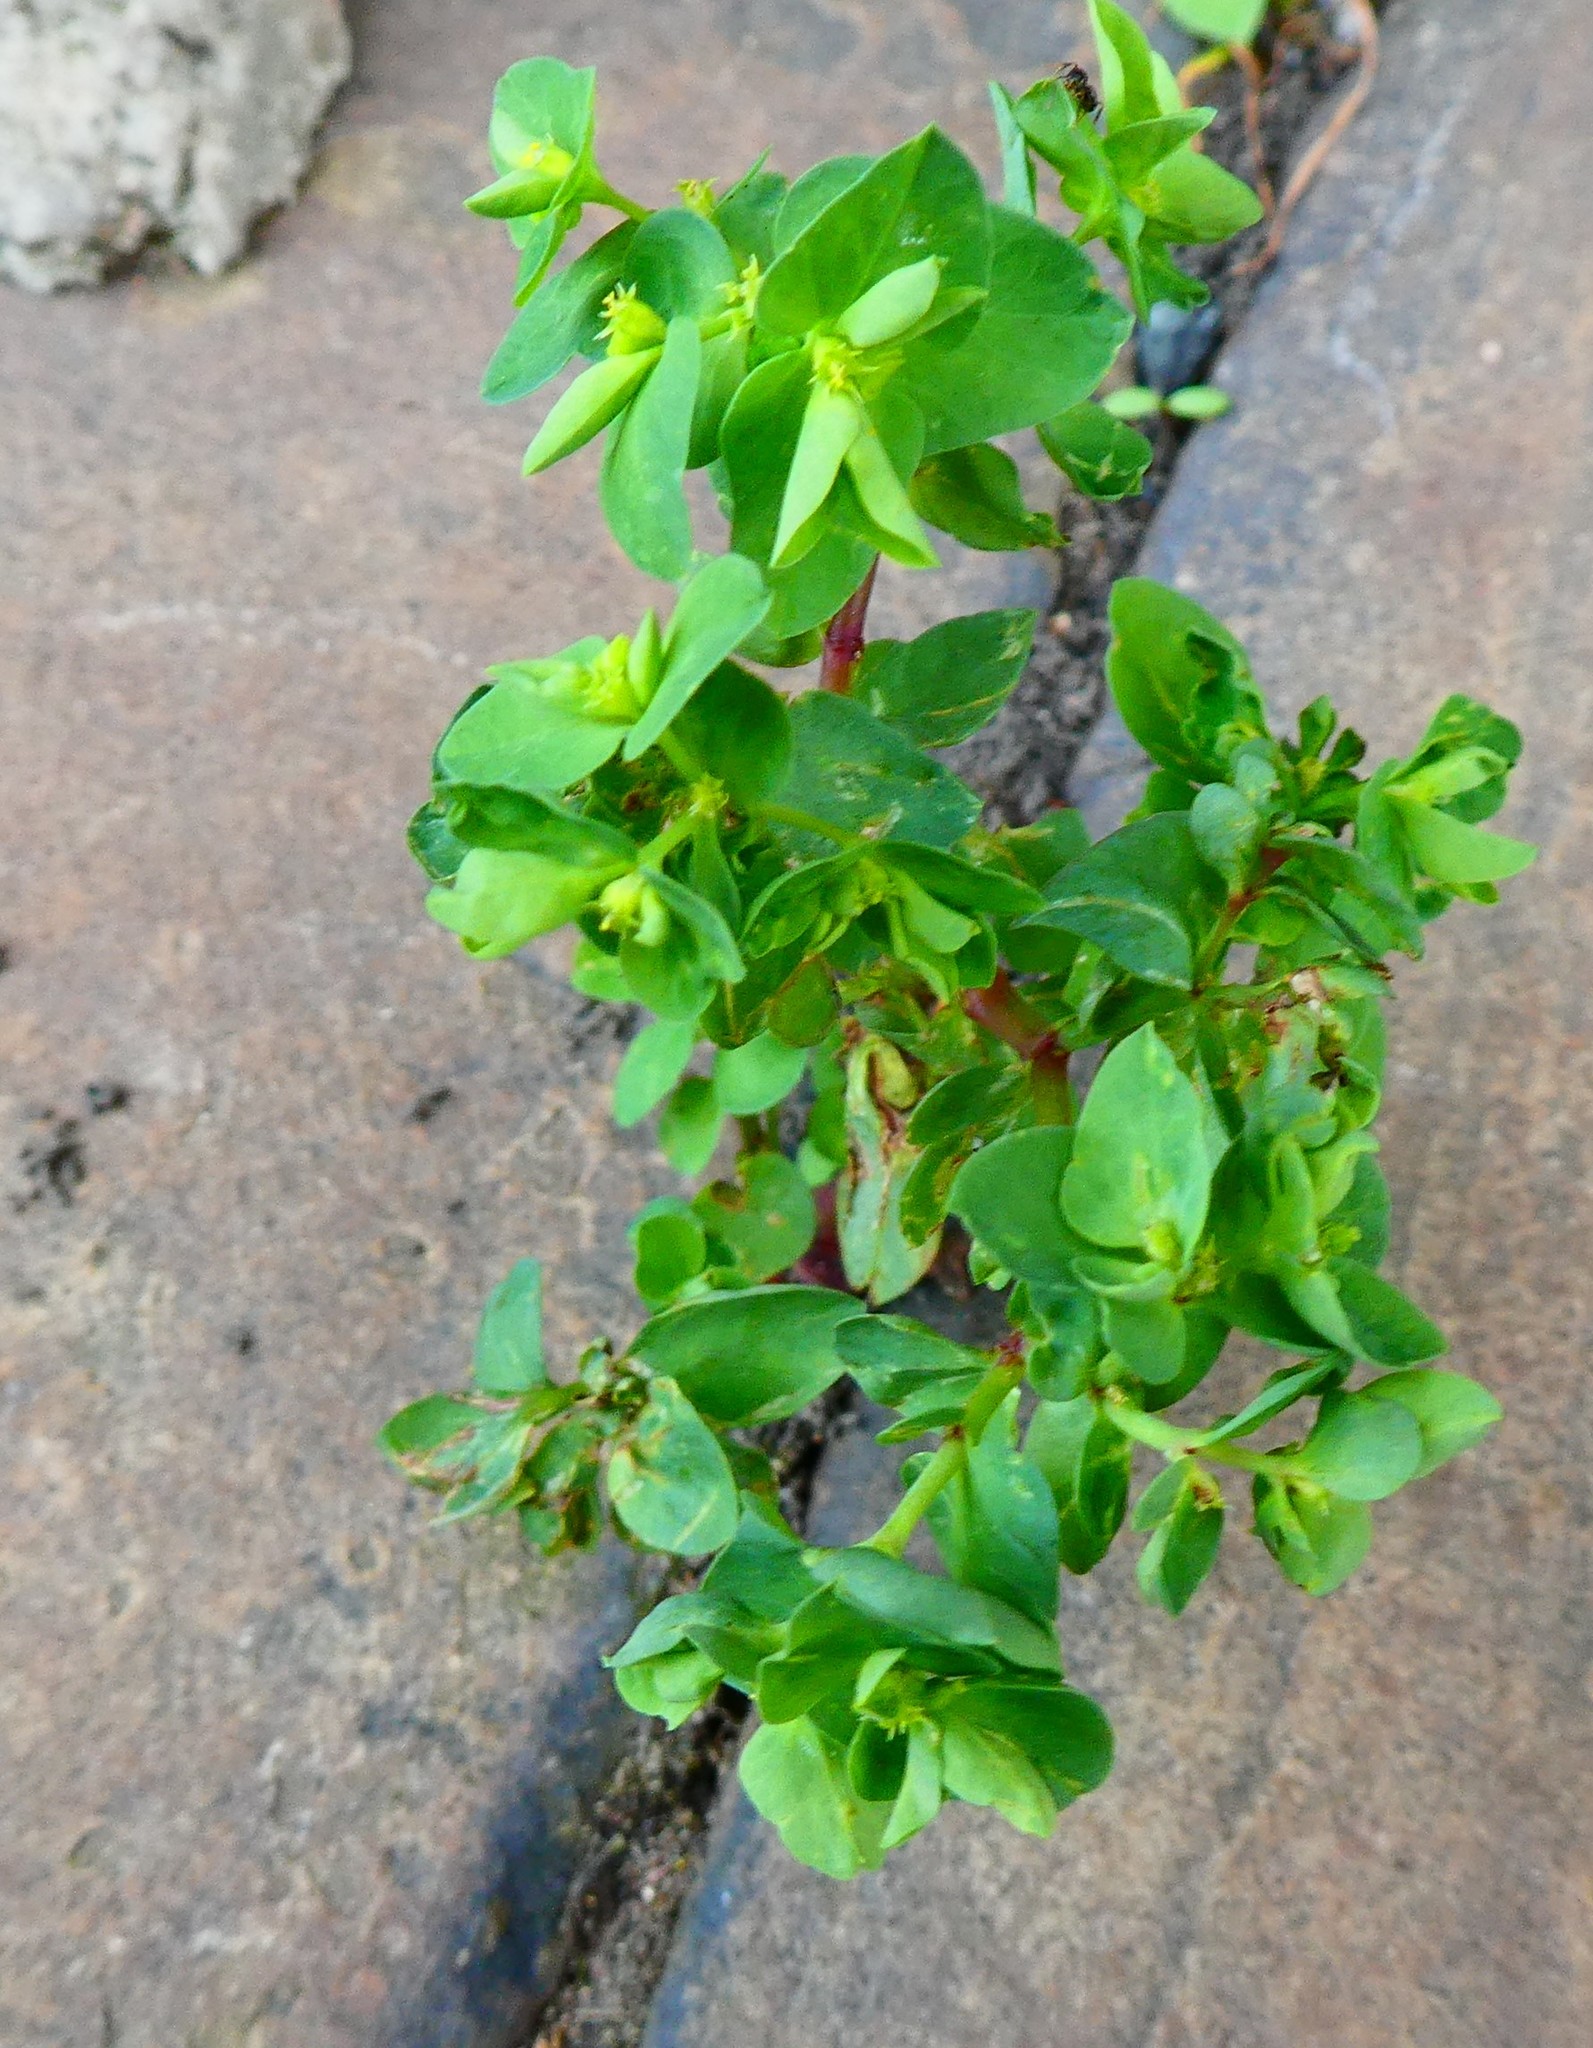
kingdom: Plantae
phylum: Tracheophyta
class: Magnoliopsida
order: Malpighiales
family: Euphorbiaceae
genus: Euphorbia
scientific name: Euphorbia peplus
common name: Petty spurge
